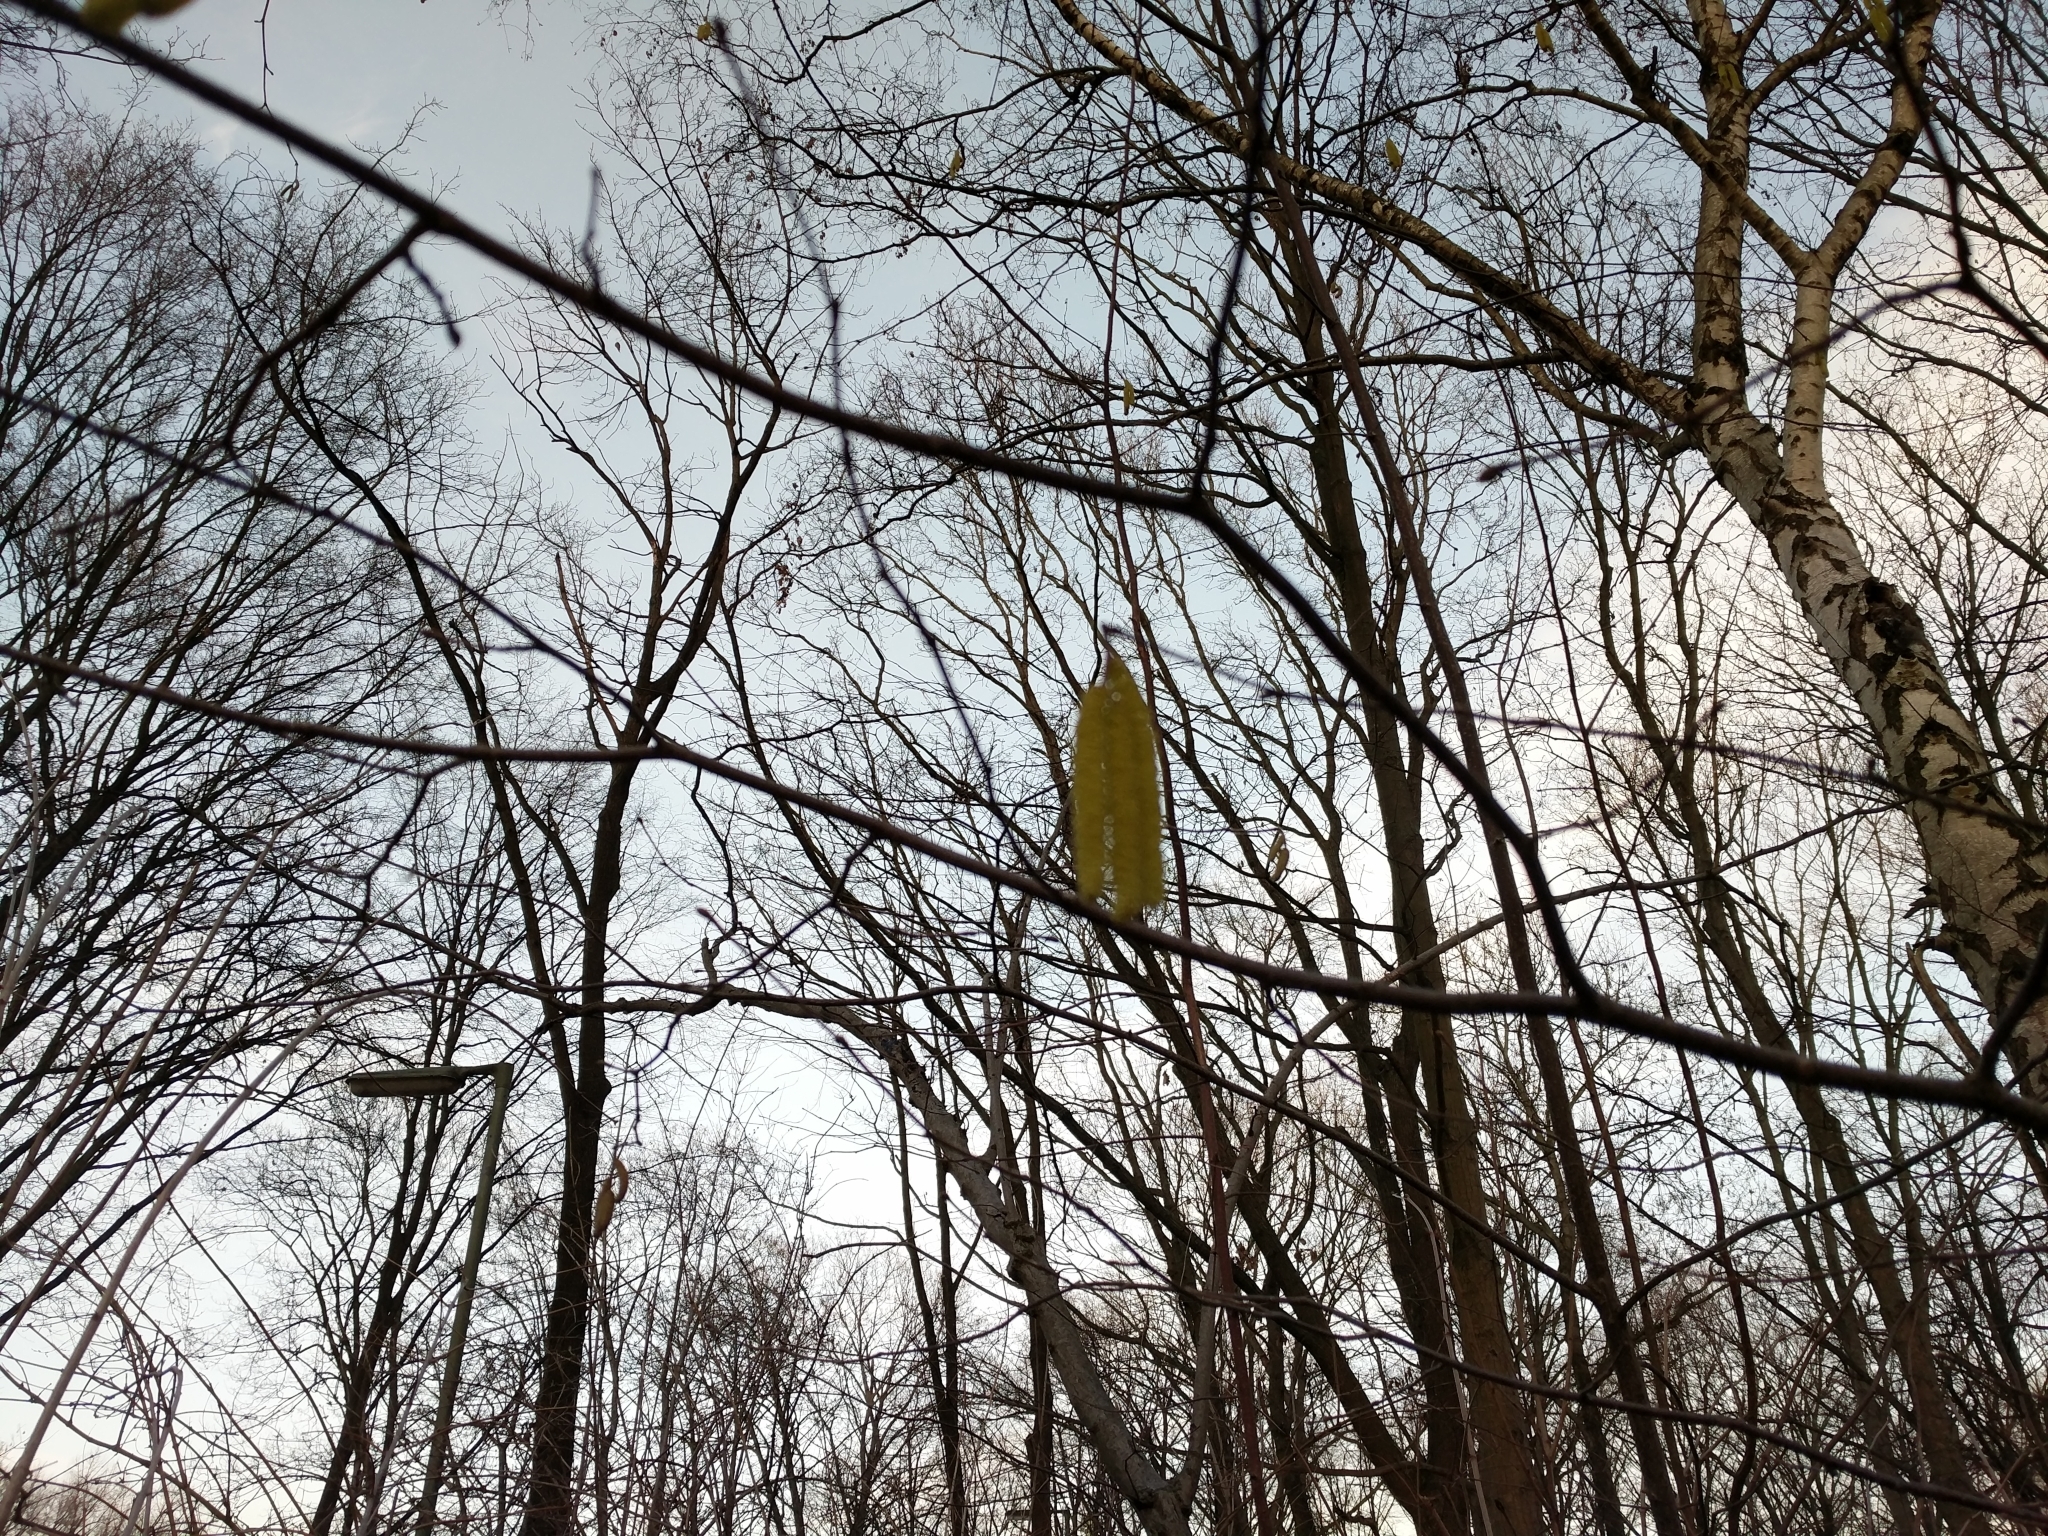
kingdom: Plantae
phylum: Tracheophyta
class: Magnoliopsida
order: Fagales
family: Betulaceae
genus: Corylus
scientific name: Corylus avellana
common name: European hazel
